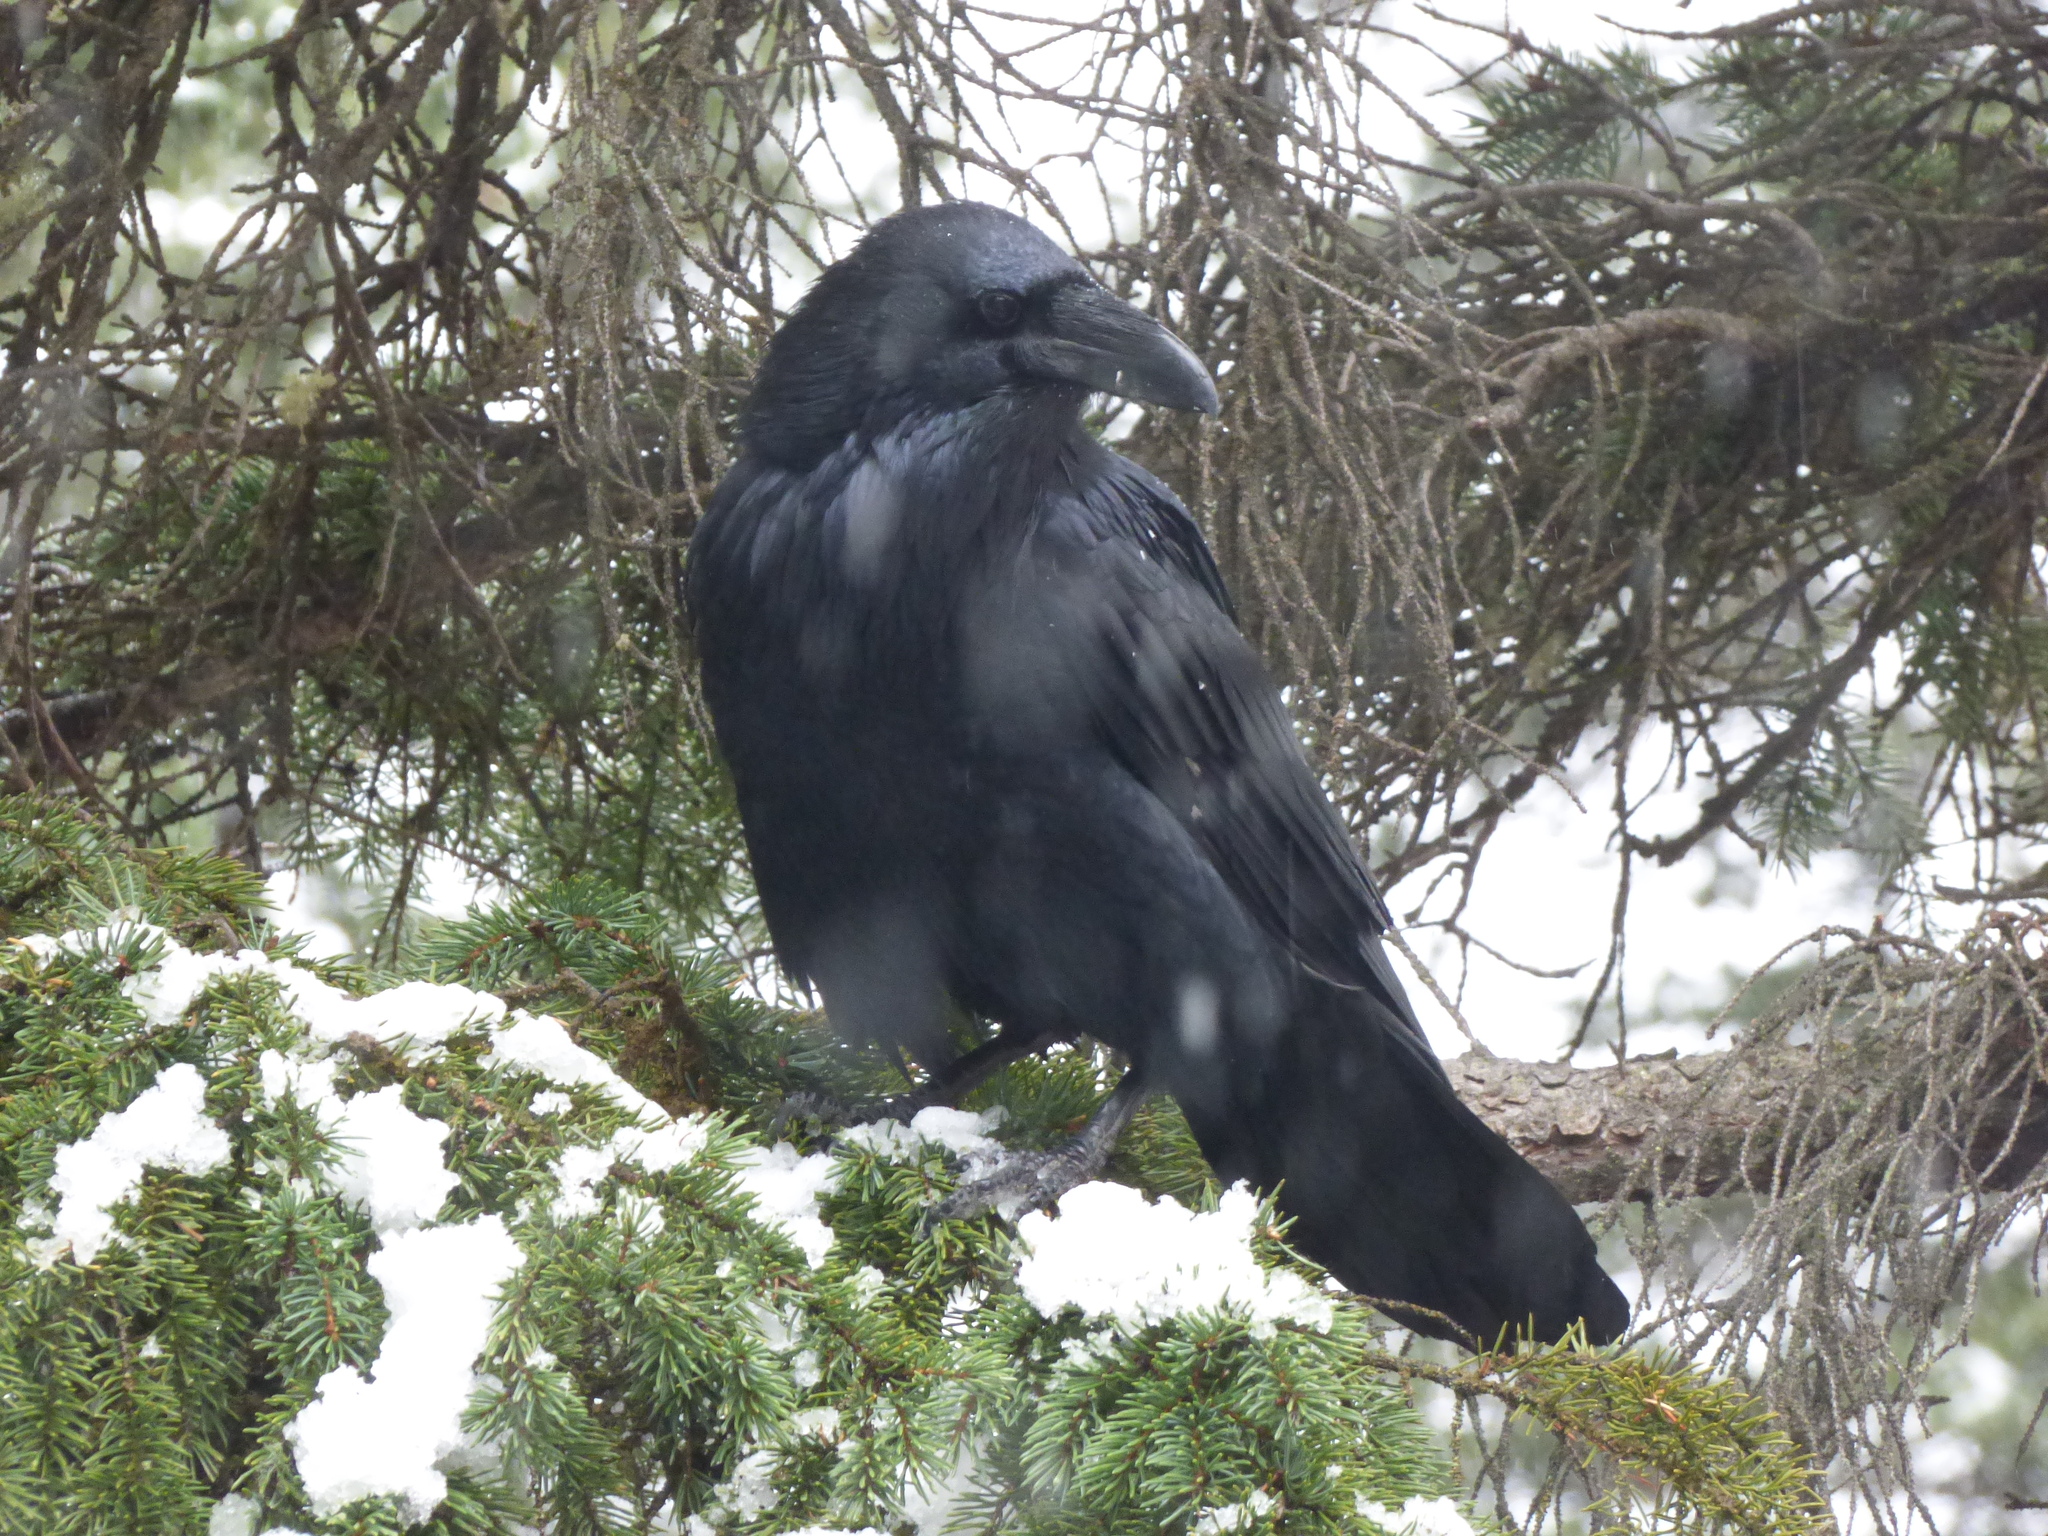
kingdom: Animalia
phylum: Chordata
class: Aves
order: Passeriformes
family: Corvidae
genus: Corvus
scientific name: Corvus corax
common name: Common raven
